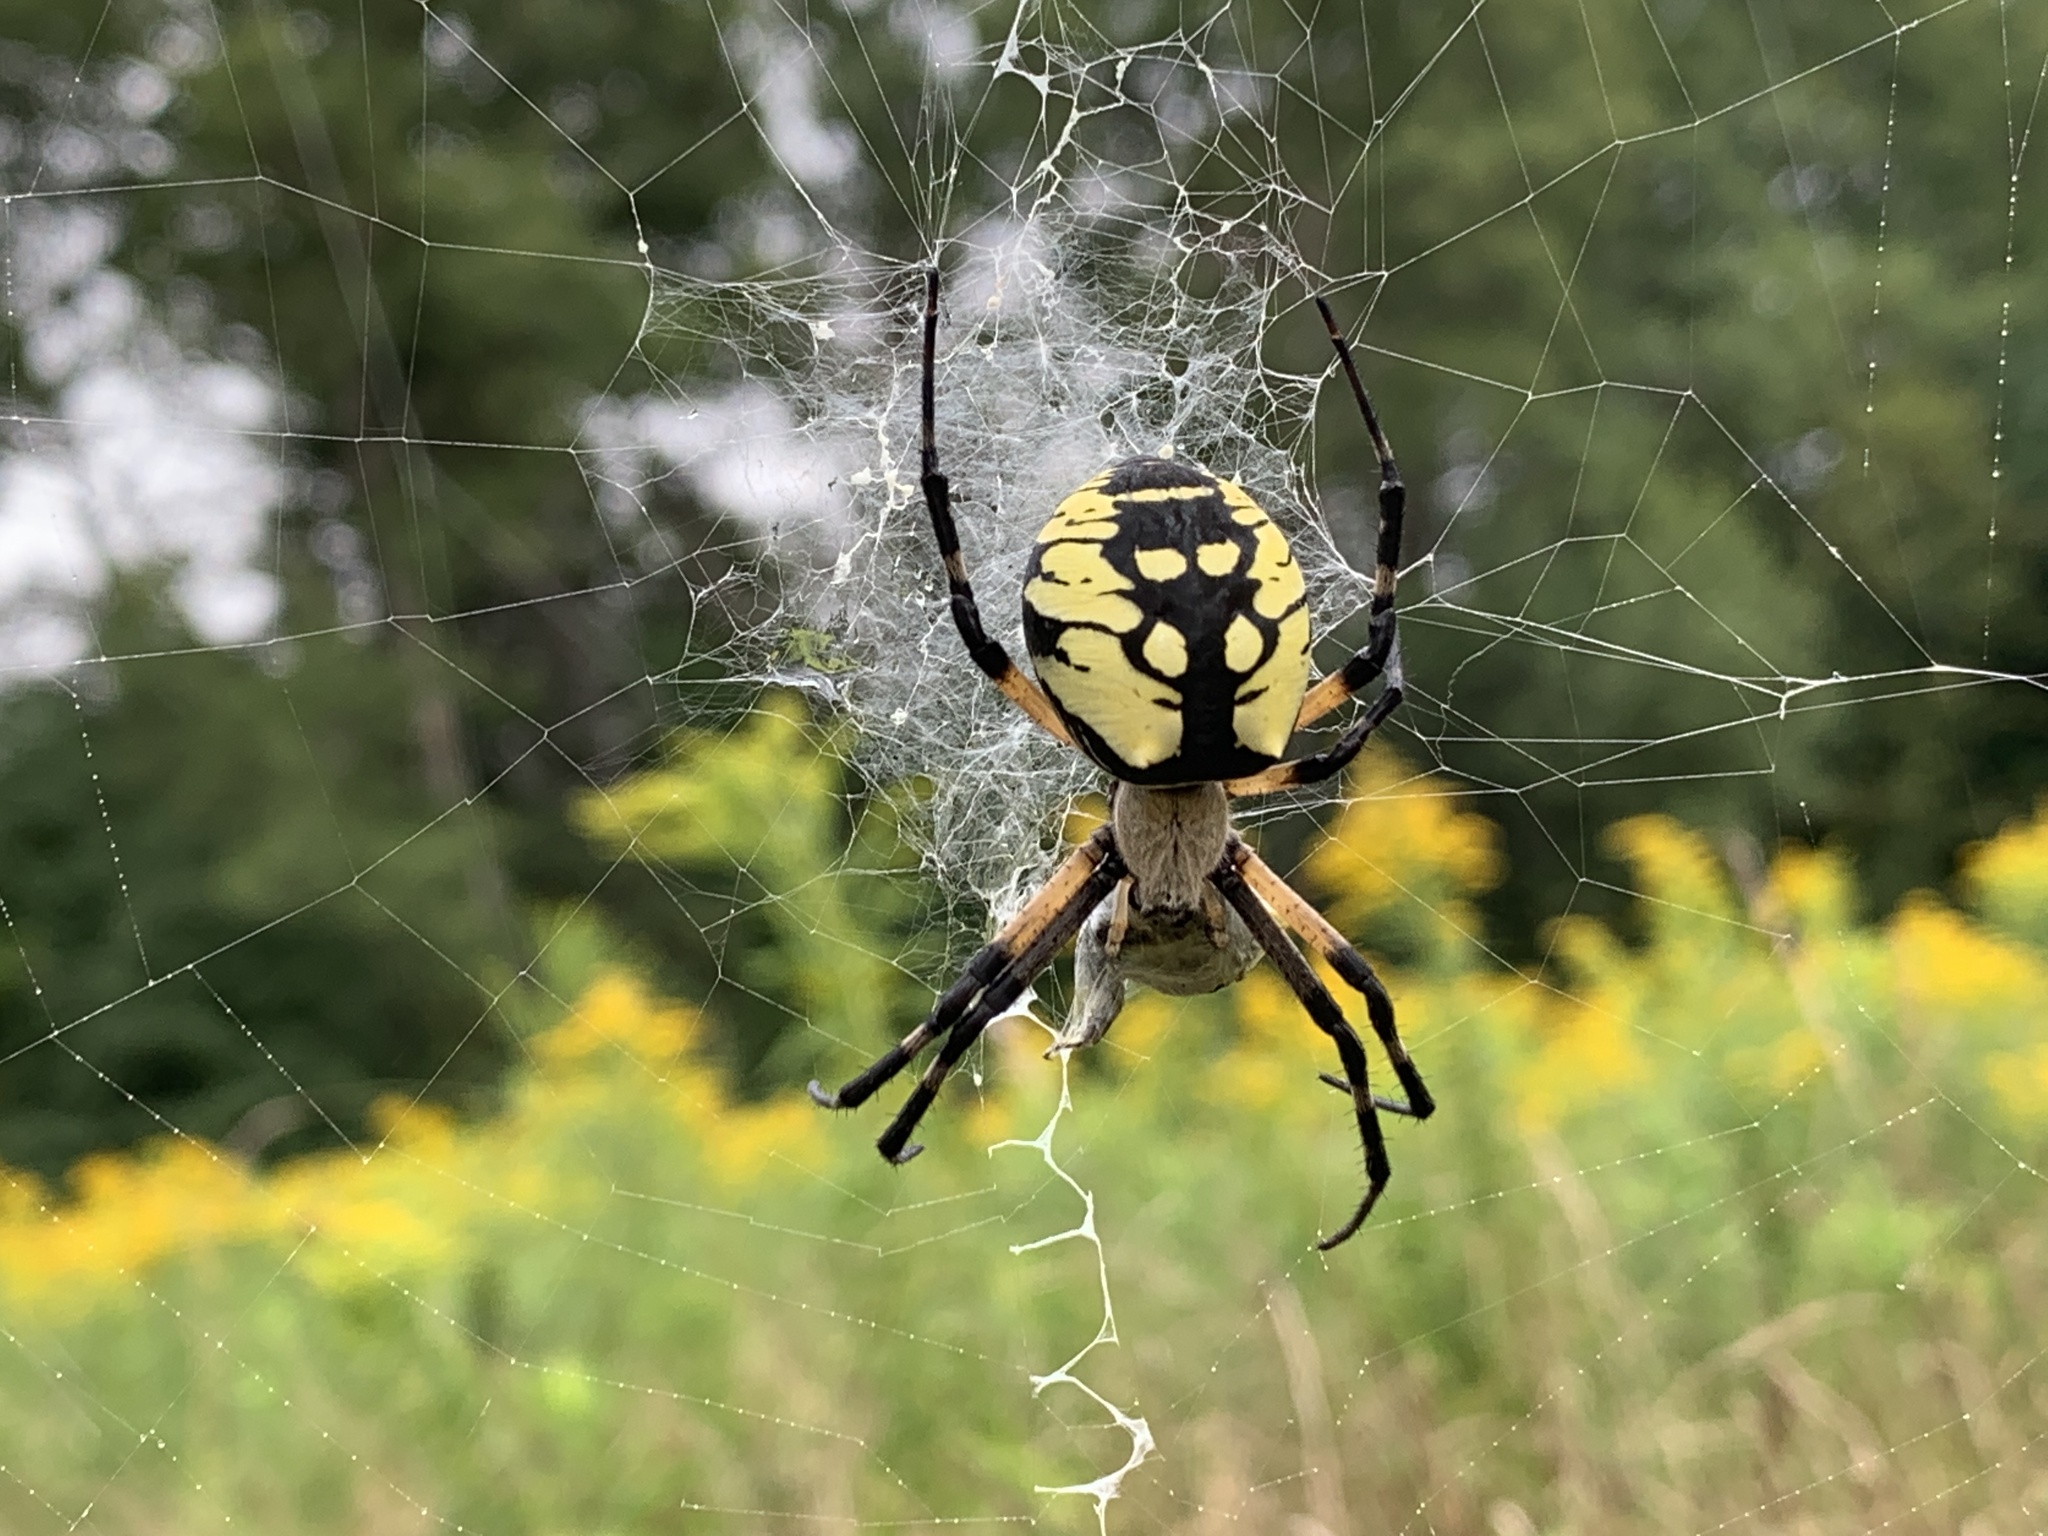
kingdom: Animalia
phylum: Arthropoda
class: Arachnida
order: Araneae
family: Araneidae
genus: Argiope
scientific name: Argiope aurantia
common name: Orb weavers
